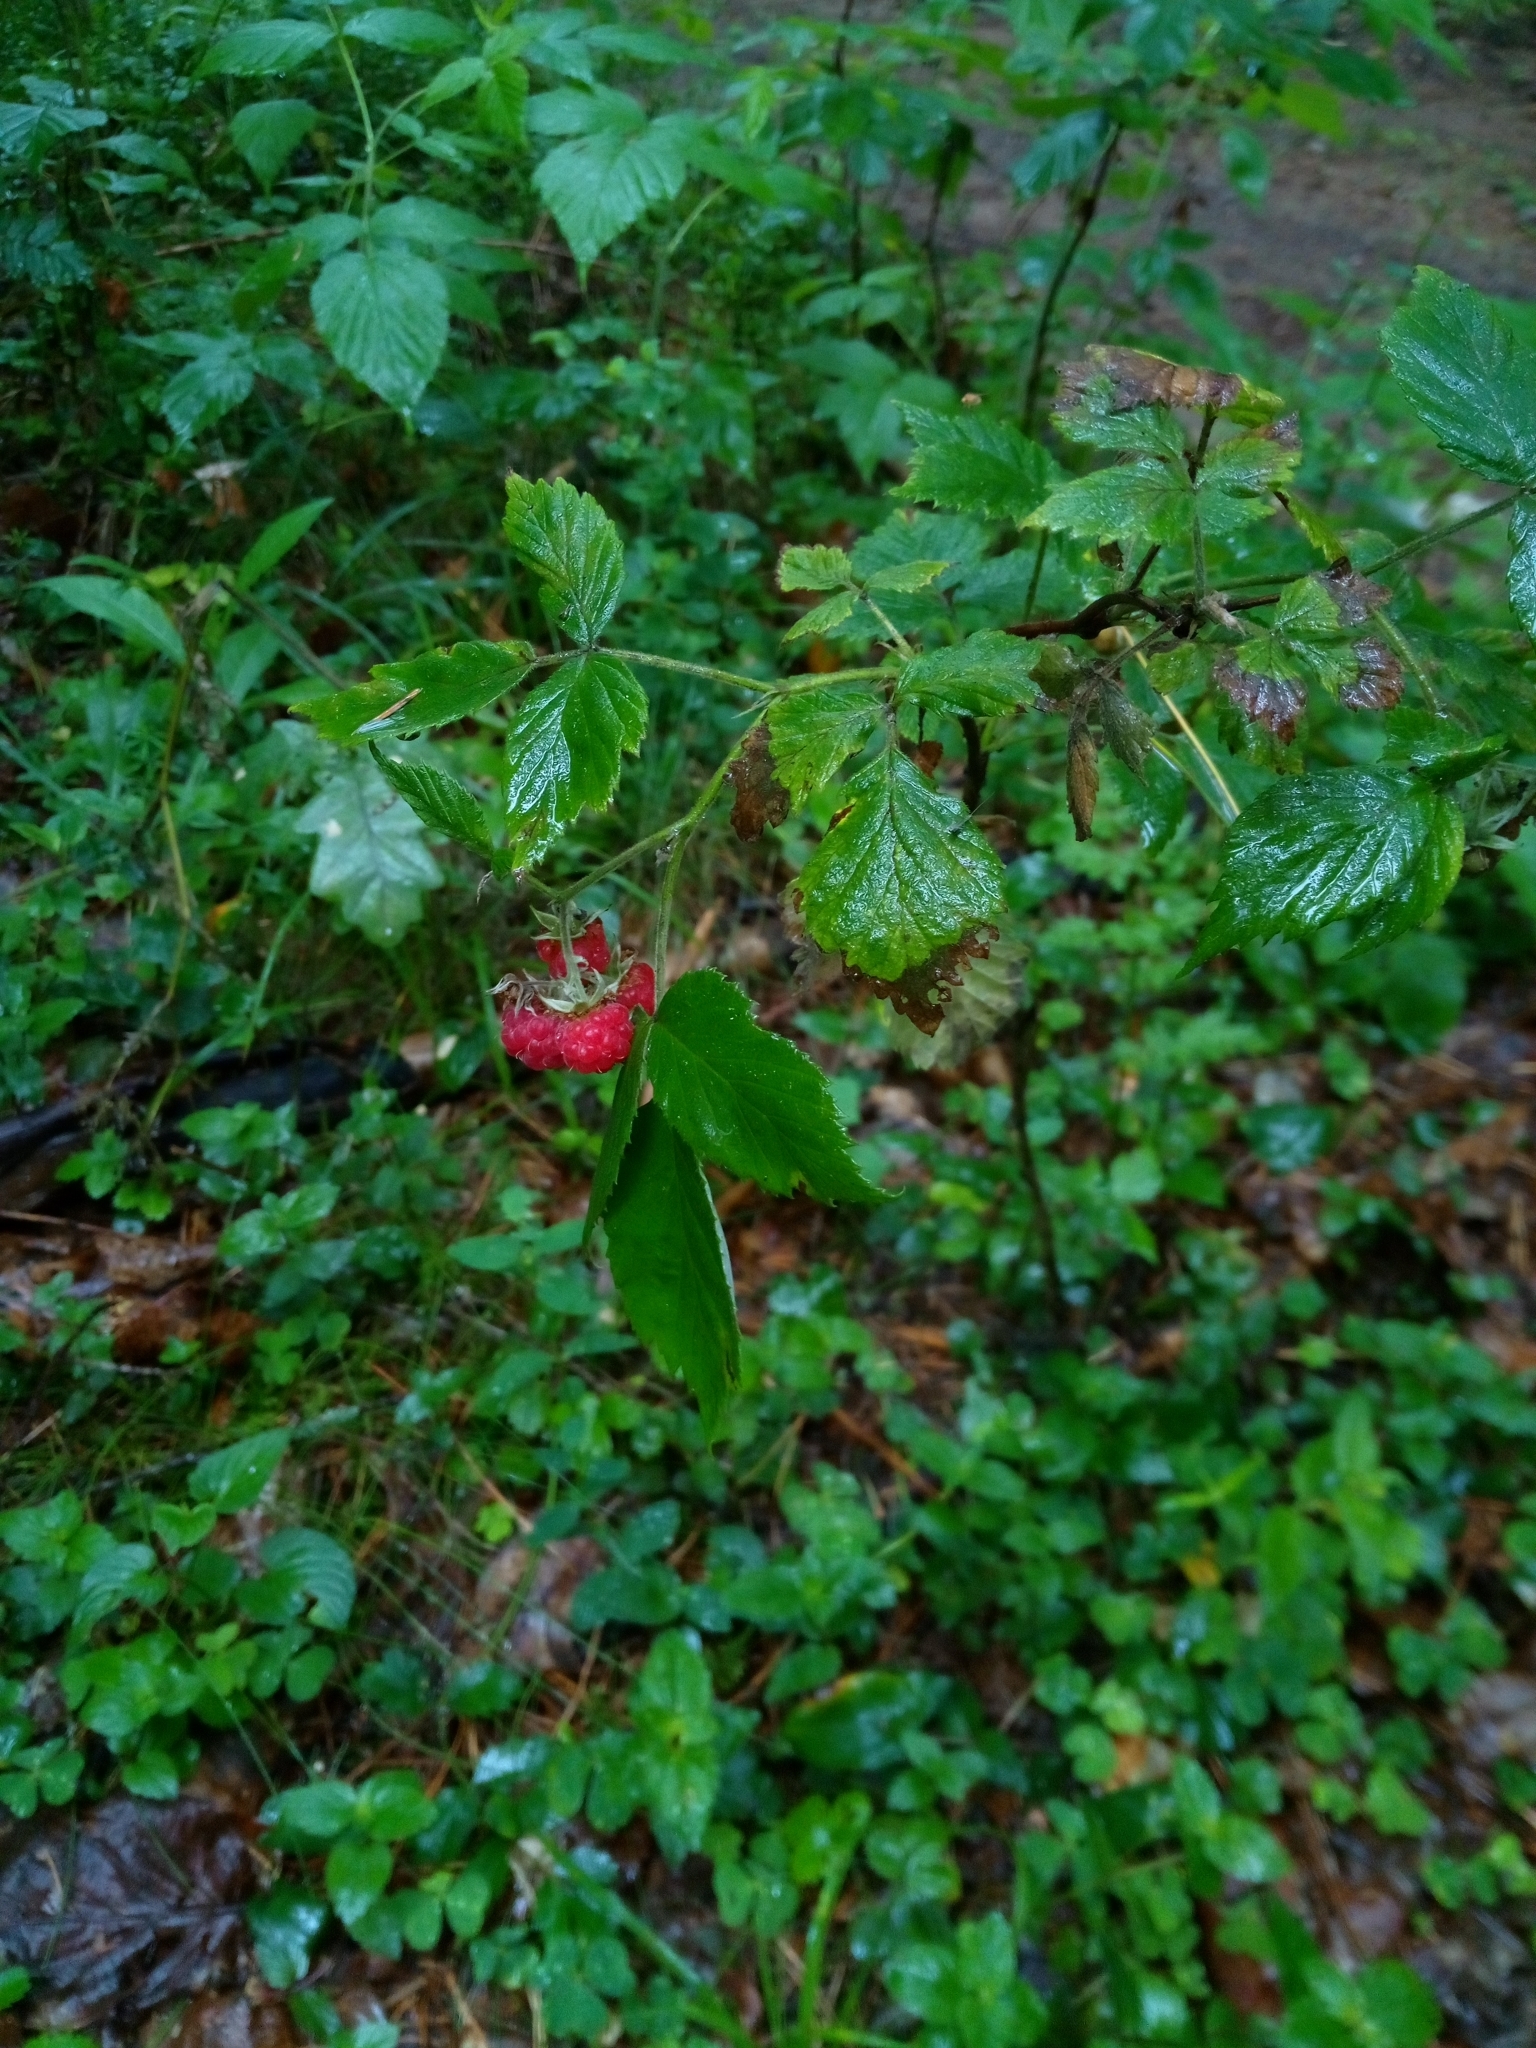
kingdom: Plantae
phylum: Tracheophyta
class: Magnoliopsida
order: Rosales
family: Rosaceae
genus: Rubus
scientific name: Rubus idaeus
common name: Raspberry
